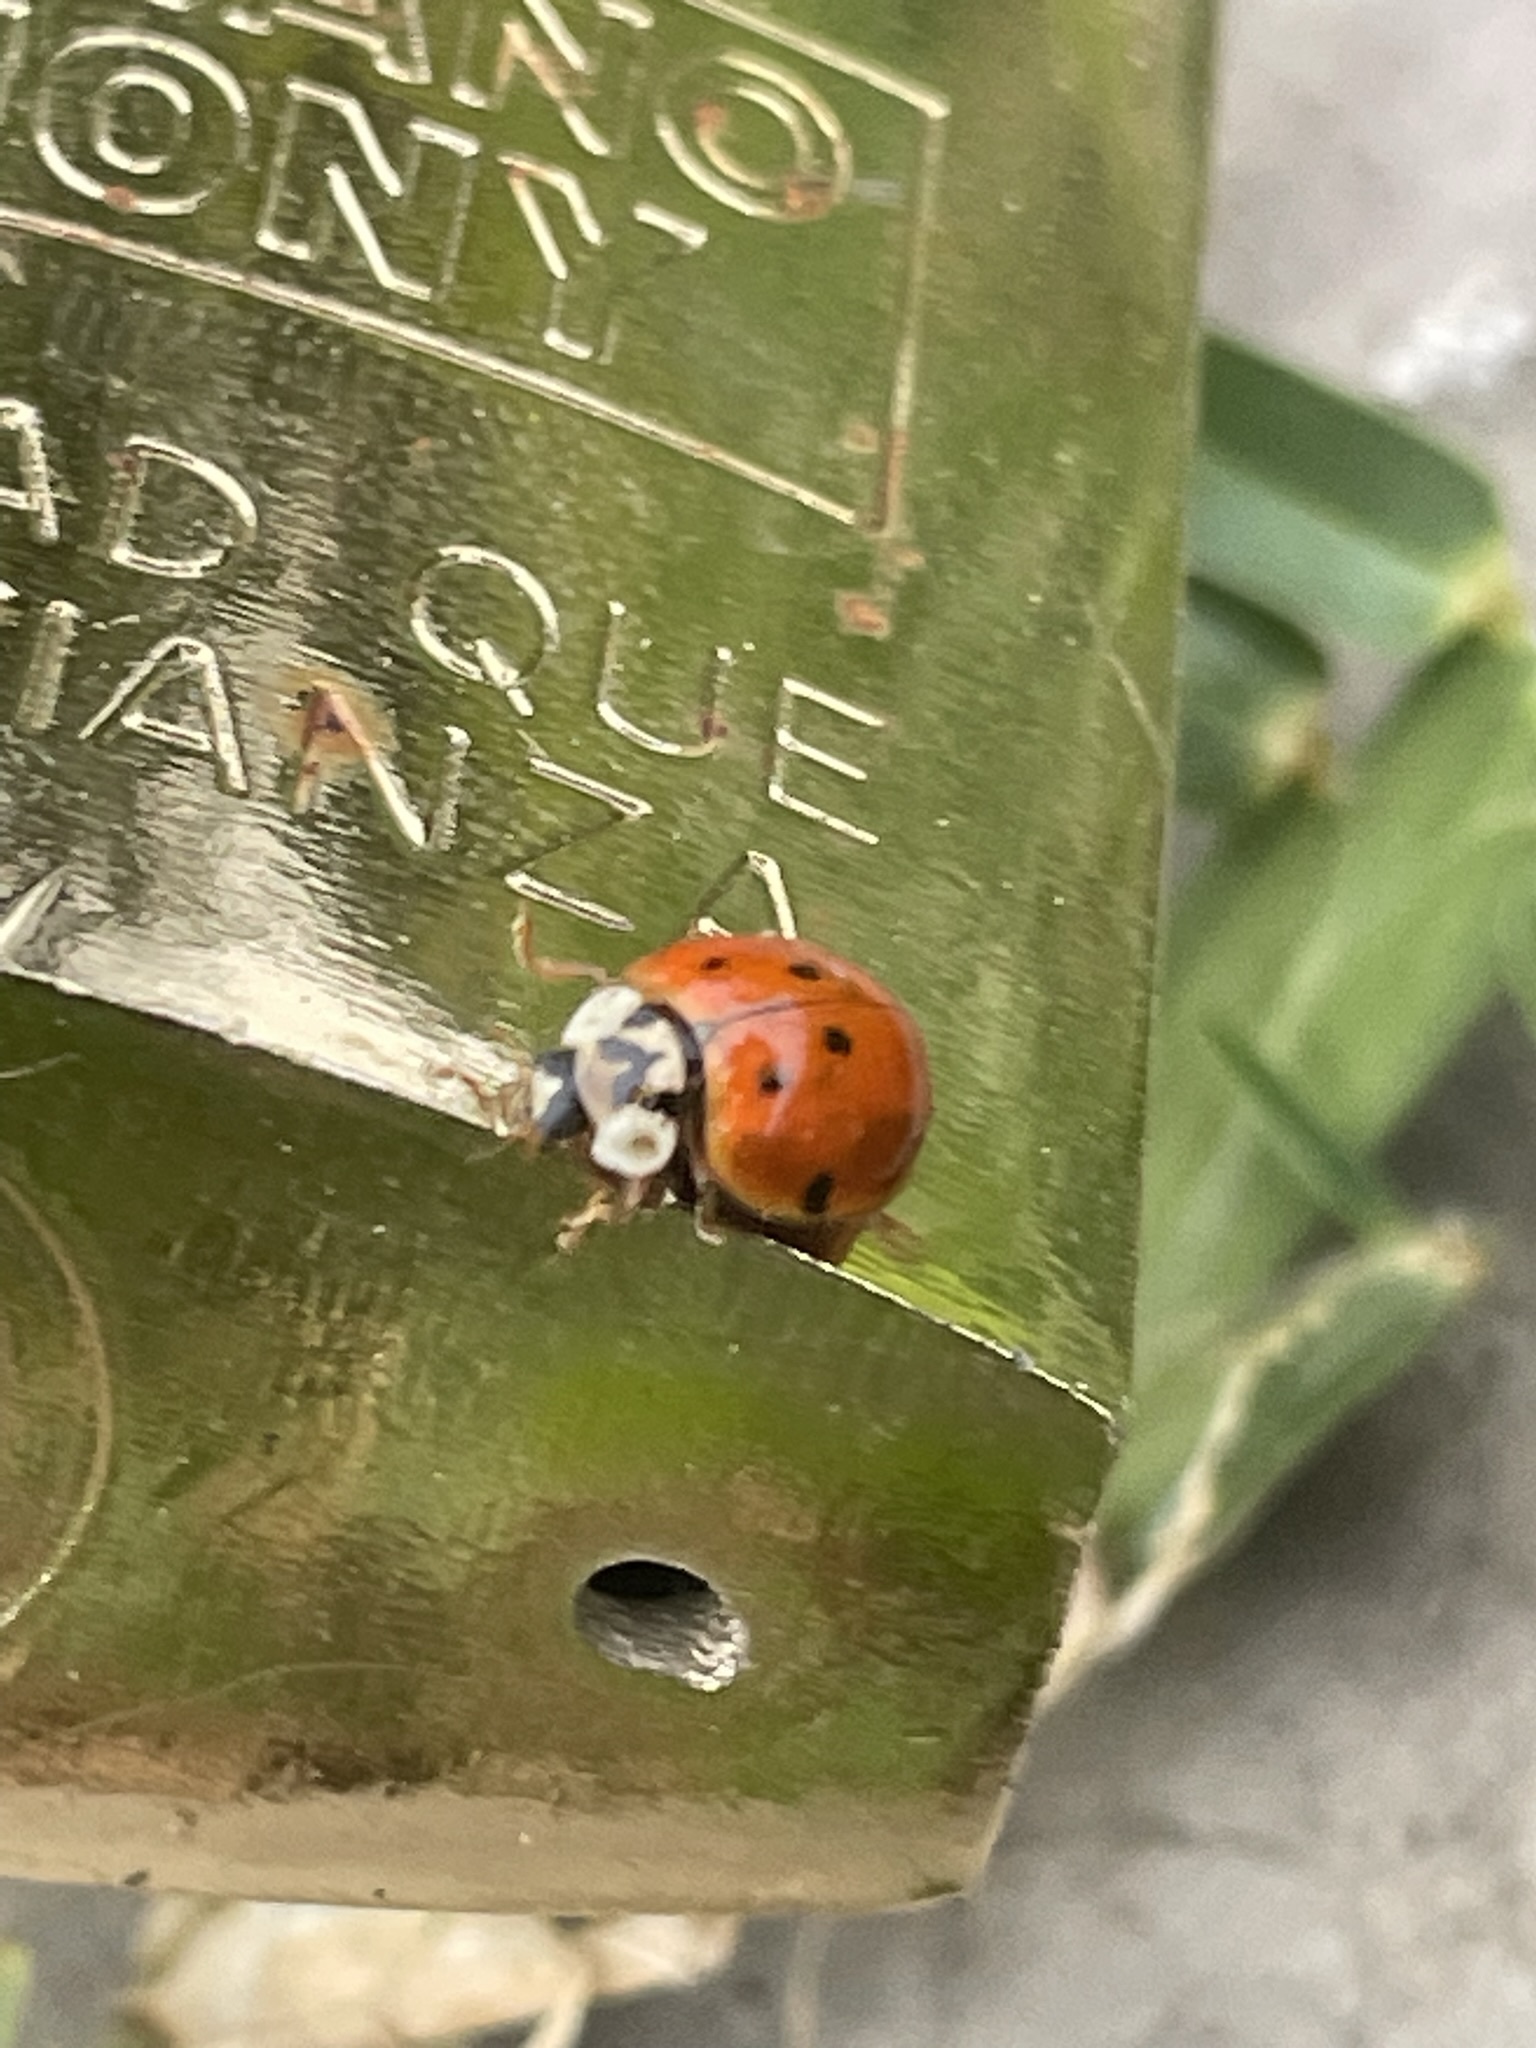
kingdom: Animalia
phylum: Arthropoda
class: Insecta
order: Coleoptera
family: Coccinellidae
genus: Harmonia
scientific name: Harmonia axyridis
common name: Harlequin ladybird
